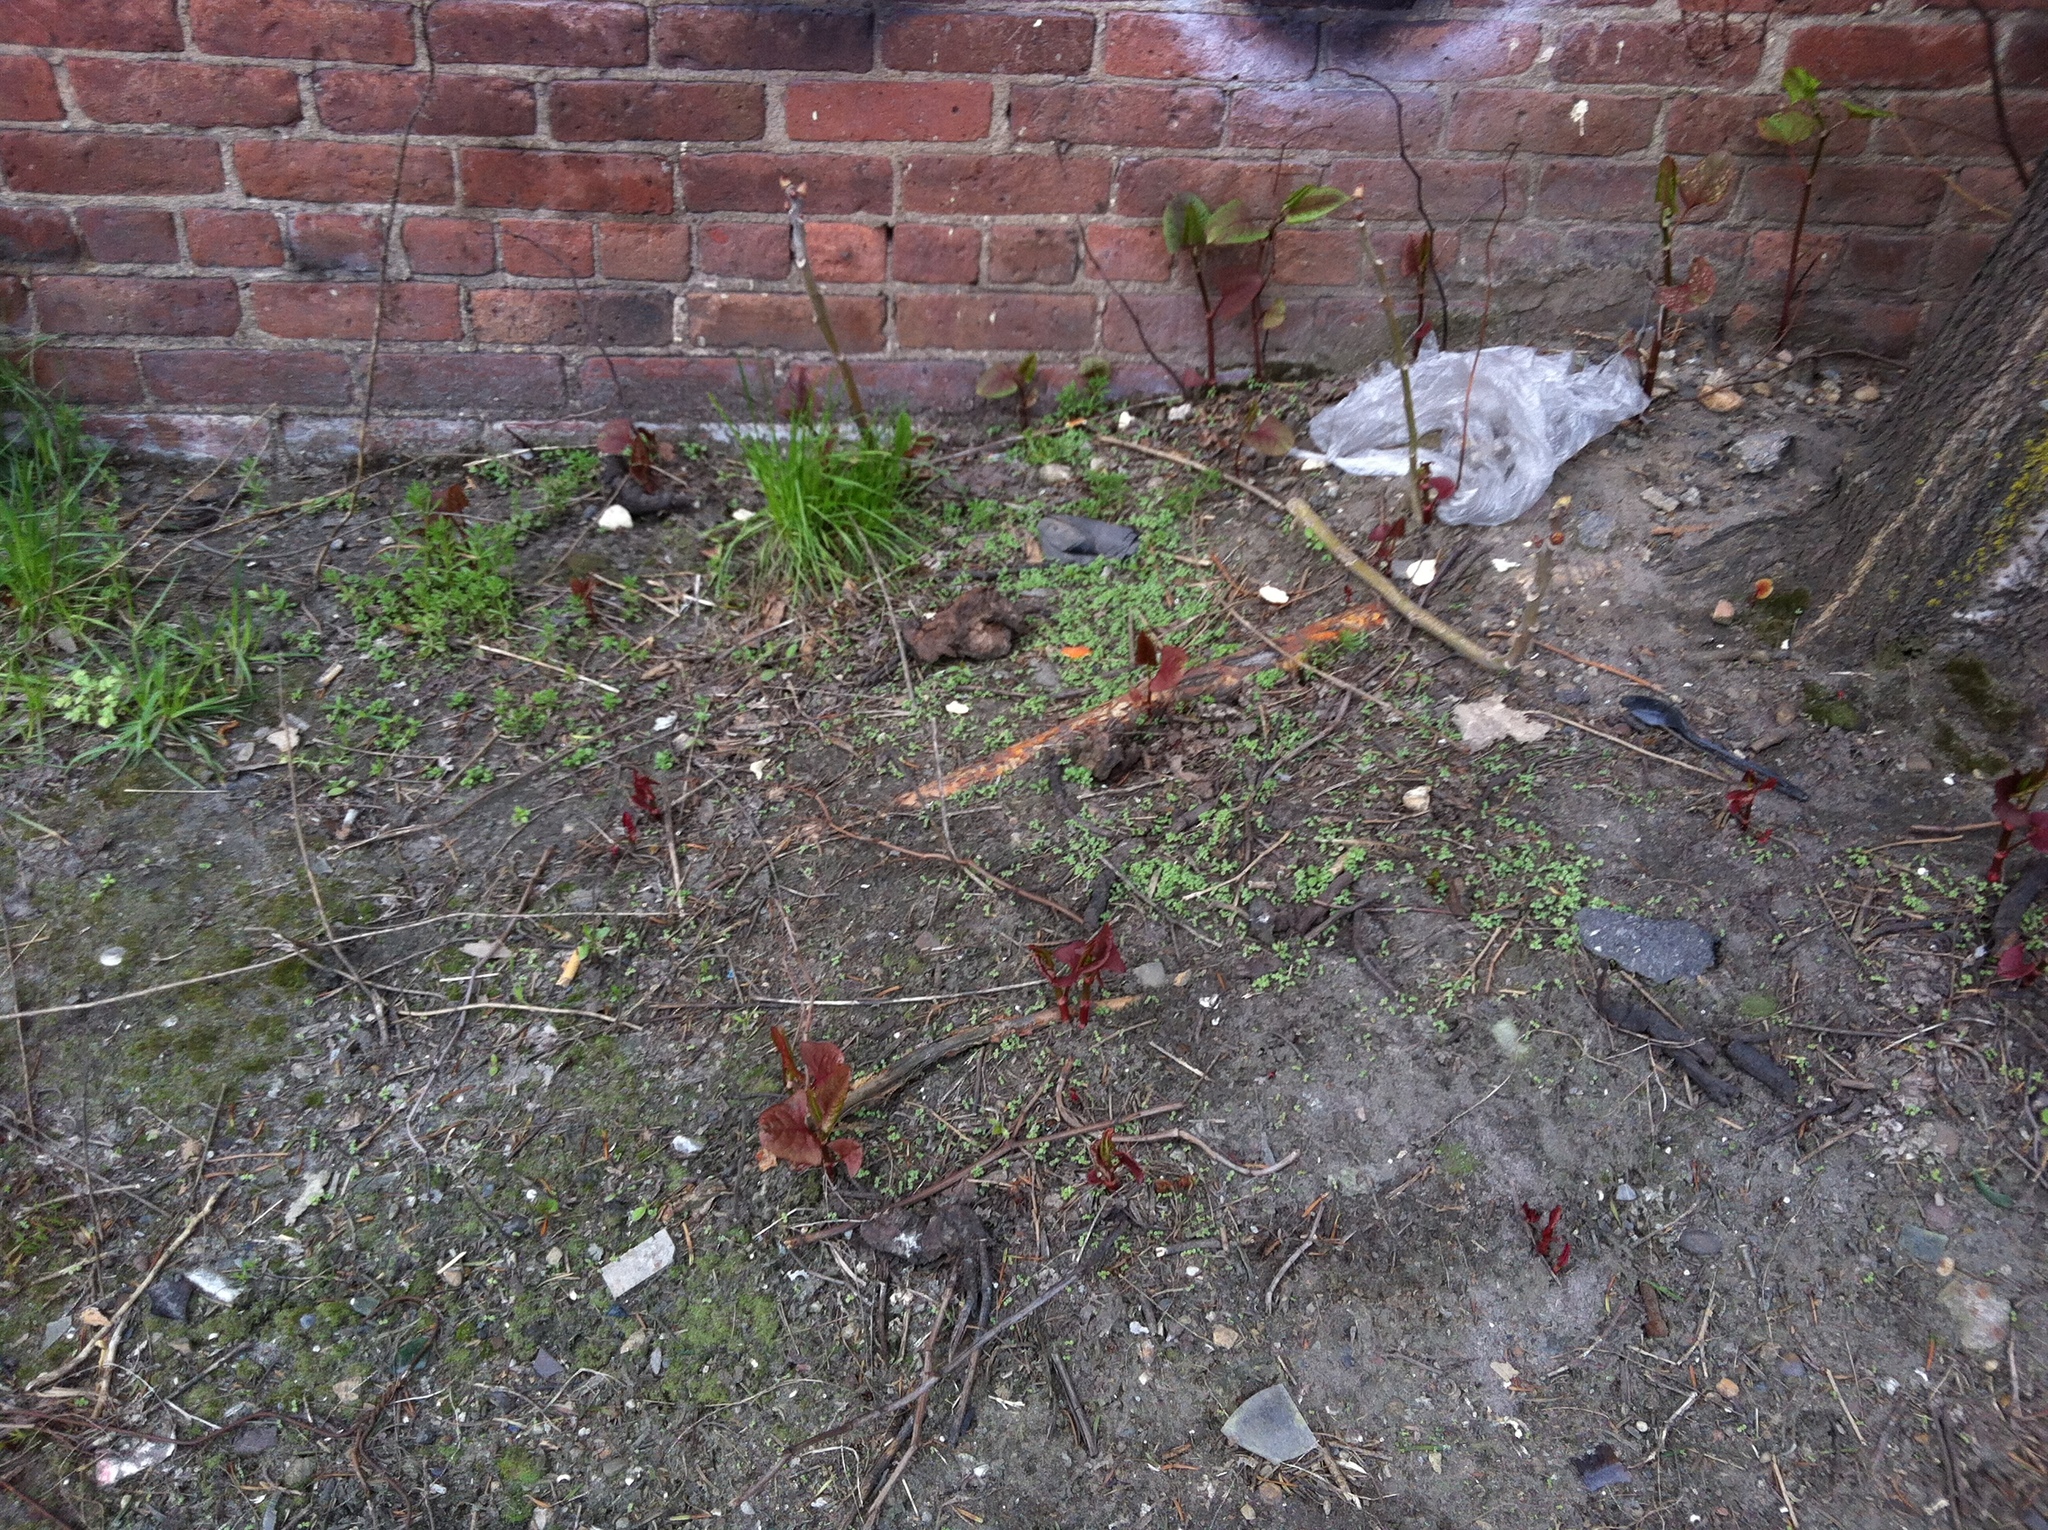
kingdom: Plantae
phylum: Tracheophyta
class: Magnoliopsida
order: Caryophyllales
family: Polygonaceae
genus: Reynoutria
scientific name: Reynoutria japonica
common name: Japanese knotweed
